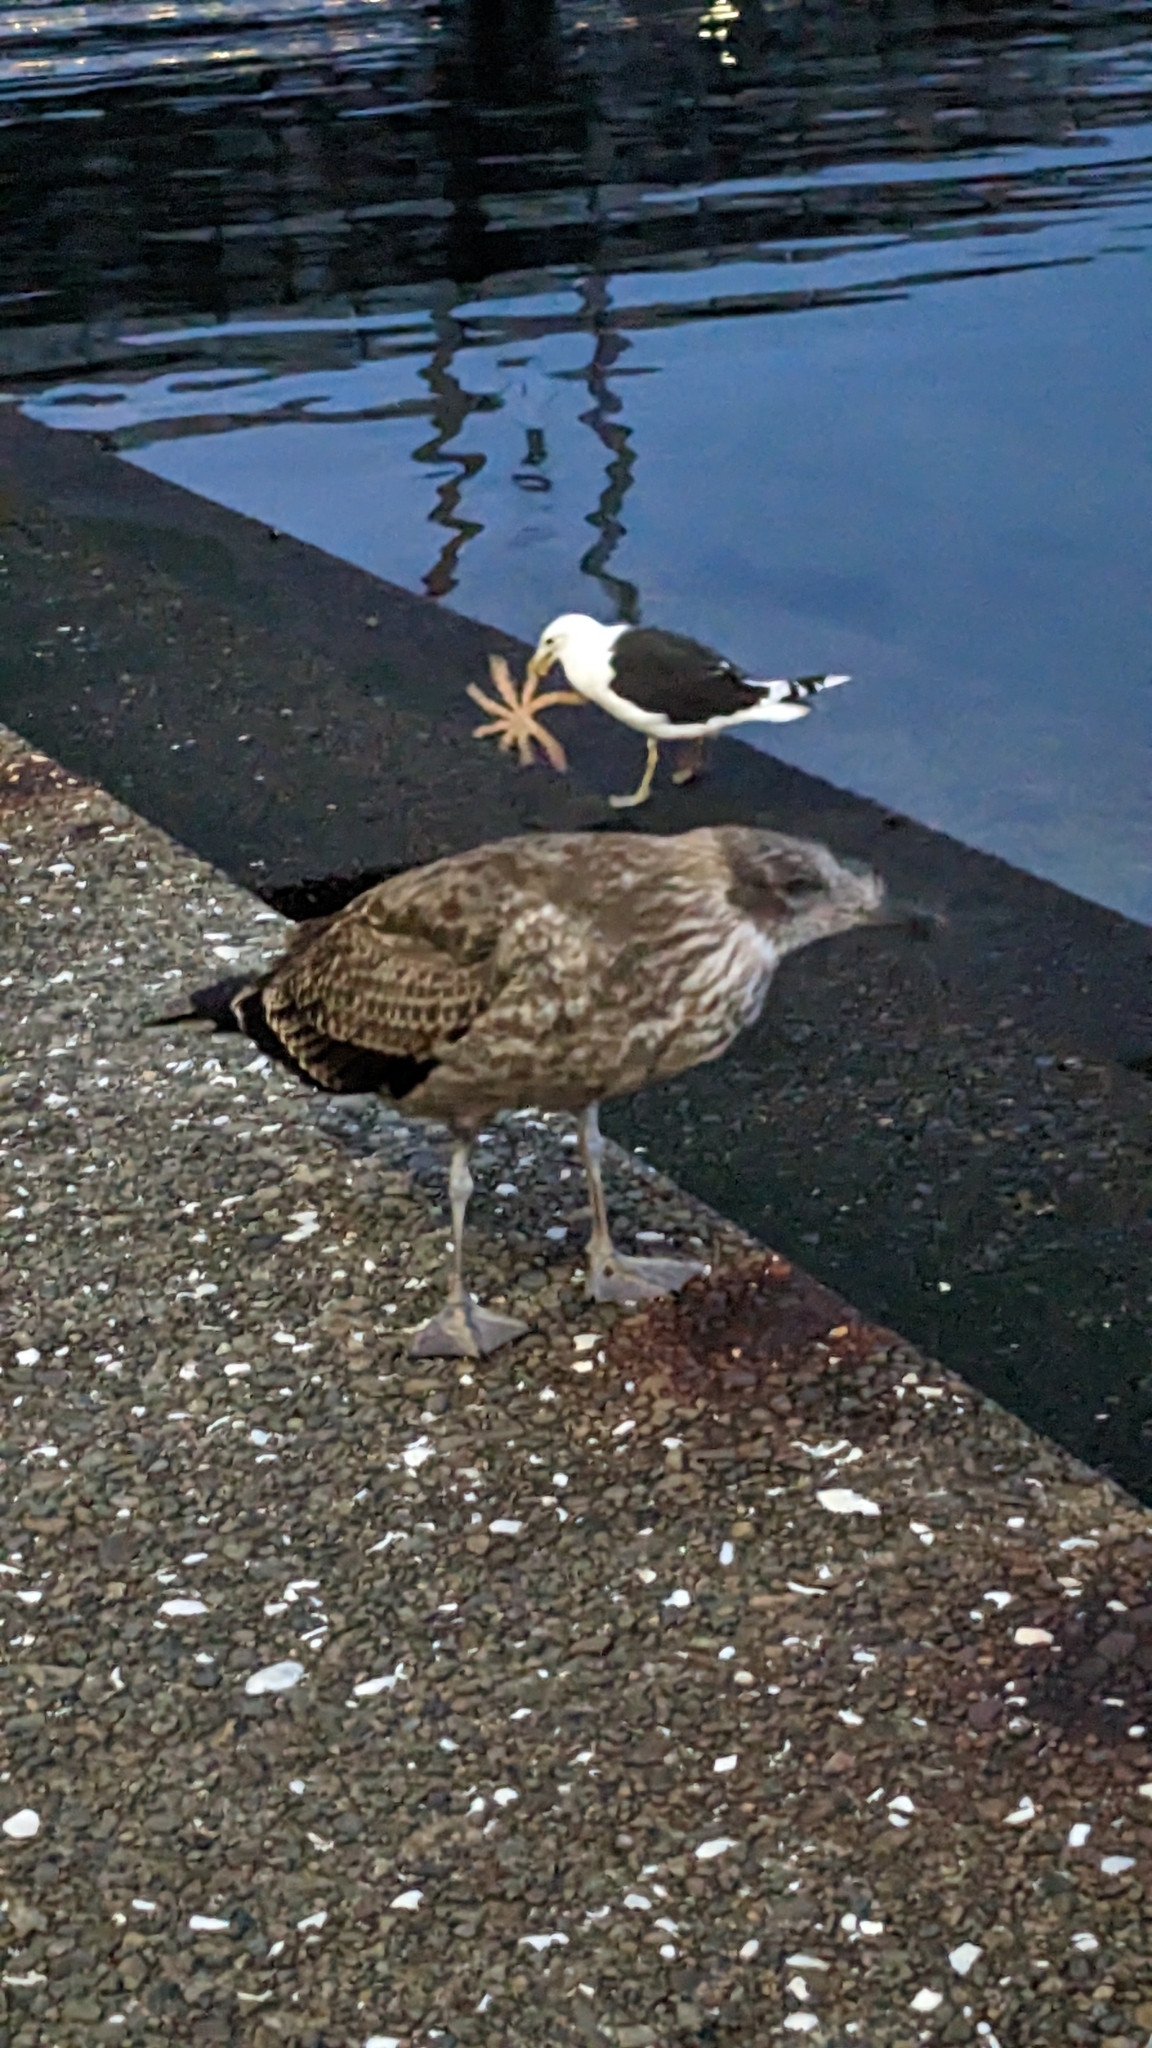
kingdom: Animalia
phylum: Chordata
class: Aves
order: Charadriiformes
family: Laridae
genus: Larus
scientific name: Larus dominicanus
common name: Kelp gull
